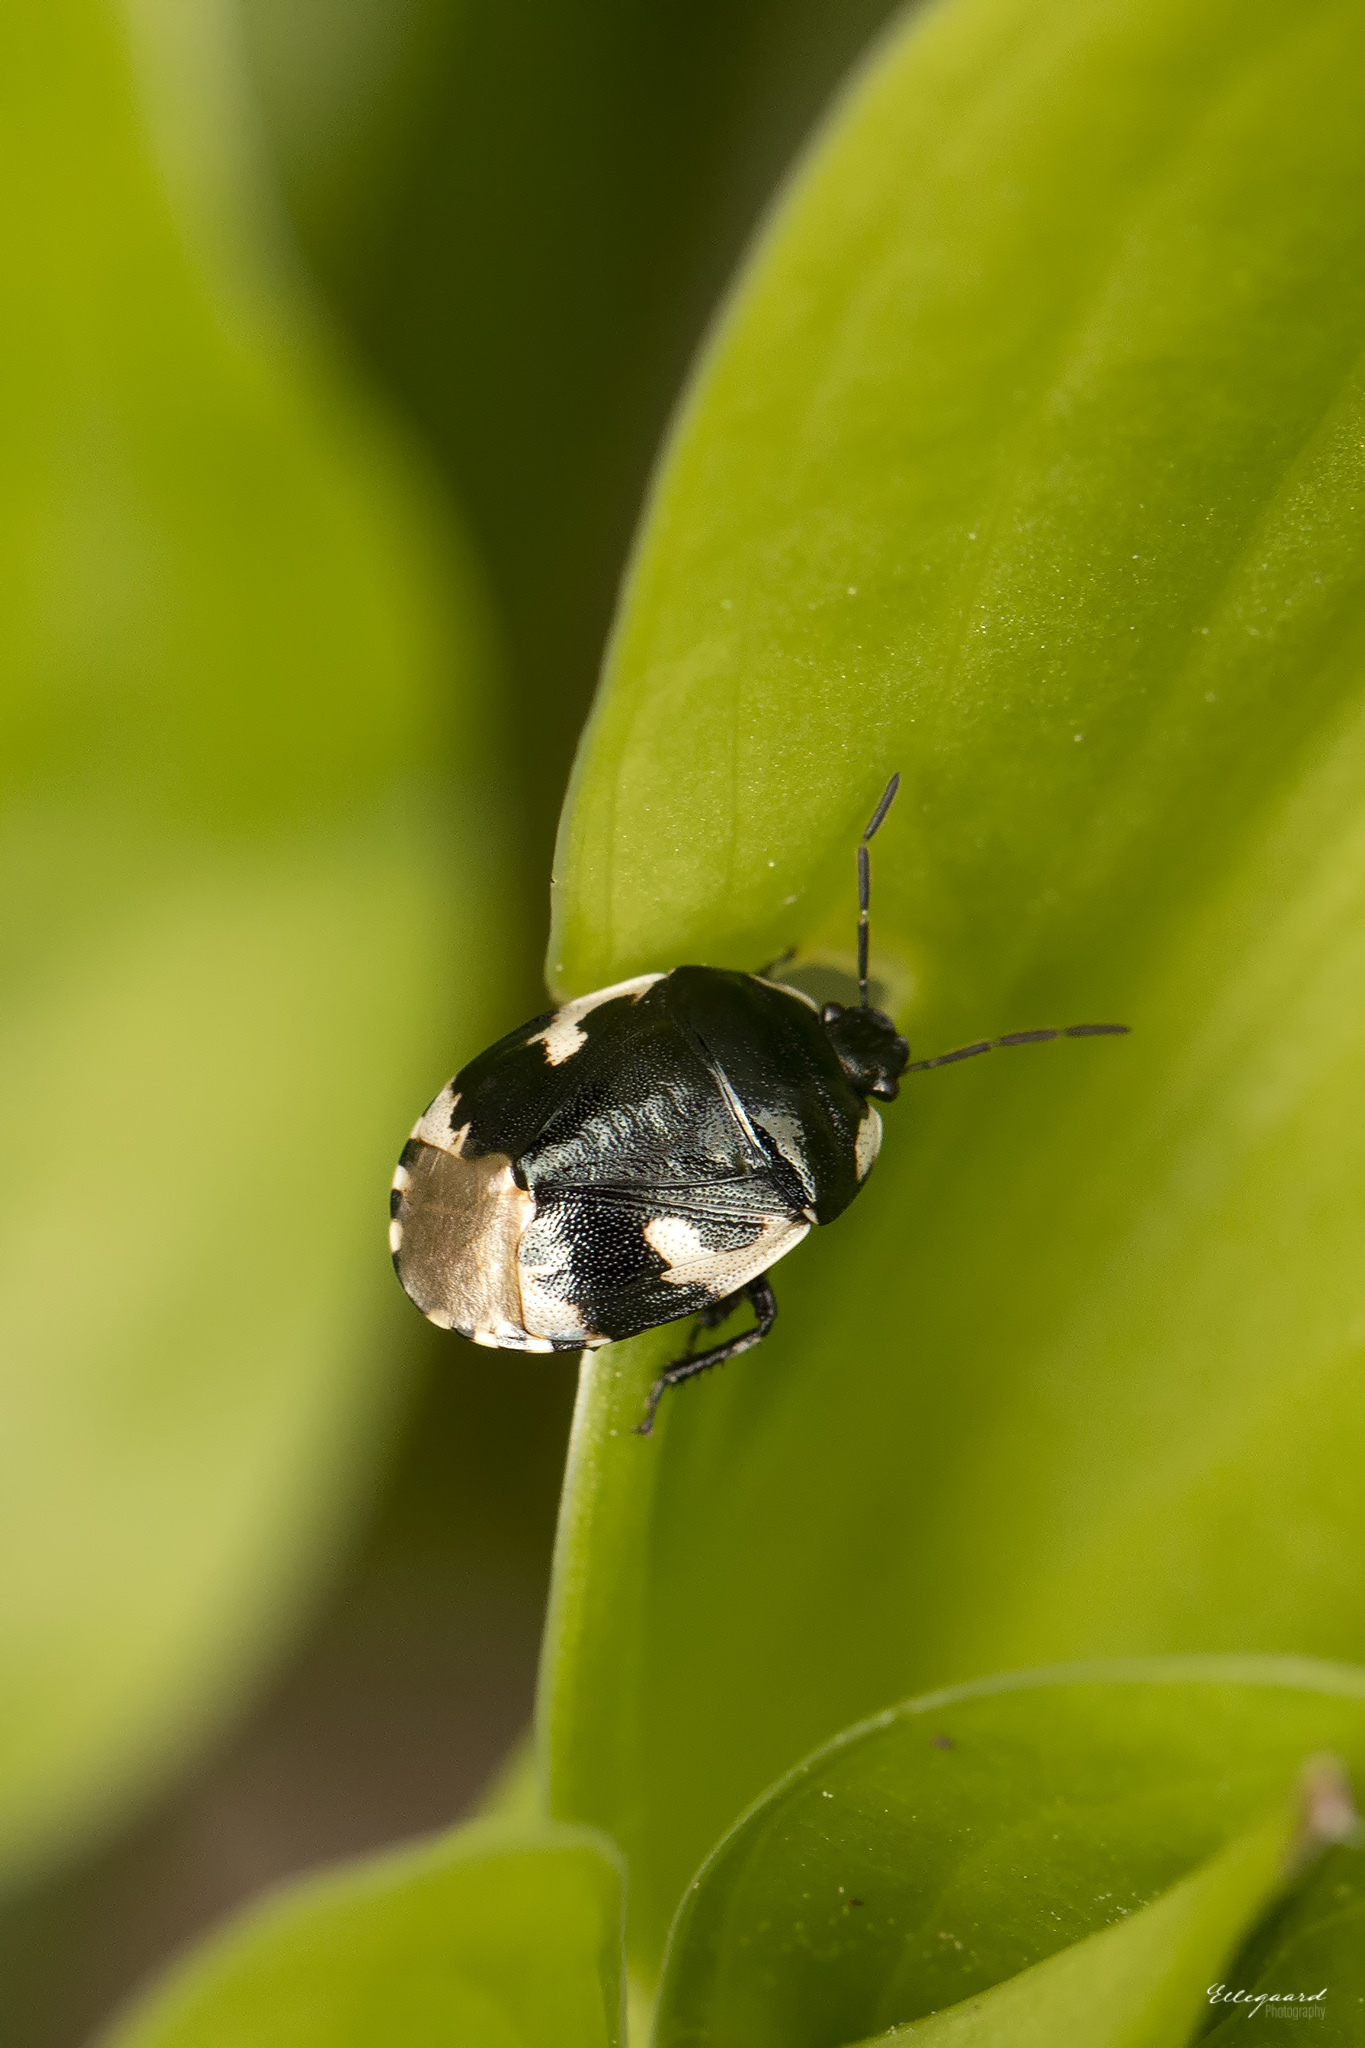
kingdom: Animalia
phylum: Arthropoda
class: Insecta
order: Hemiptera
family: Cydnidae
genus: Tritomegas
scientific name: Tritomegas bicolor
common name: Pied shieldbug
